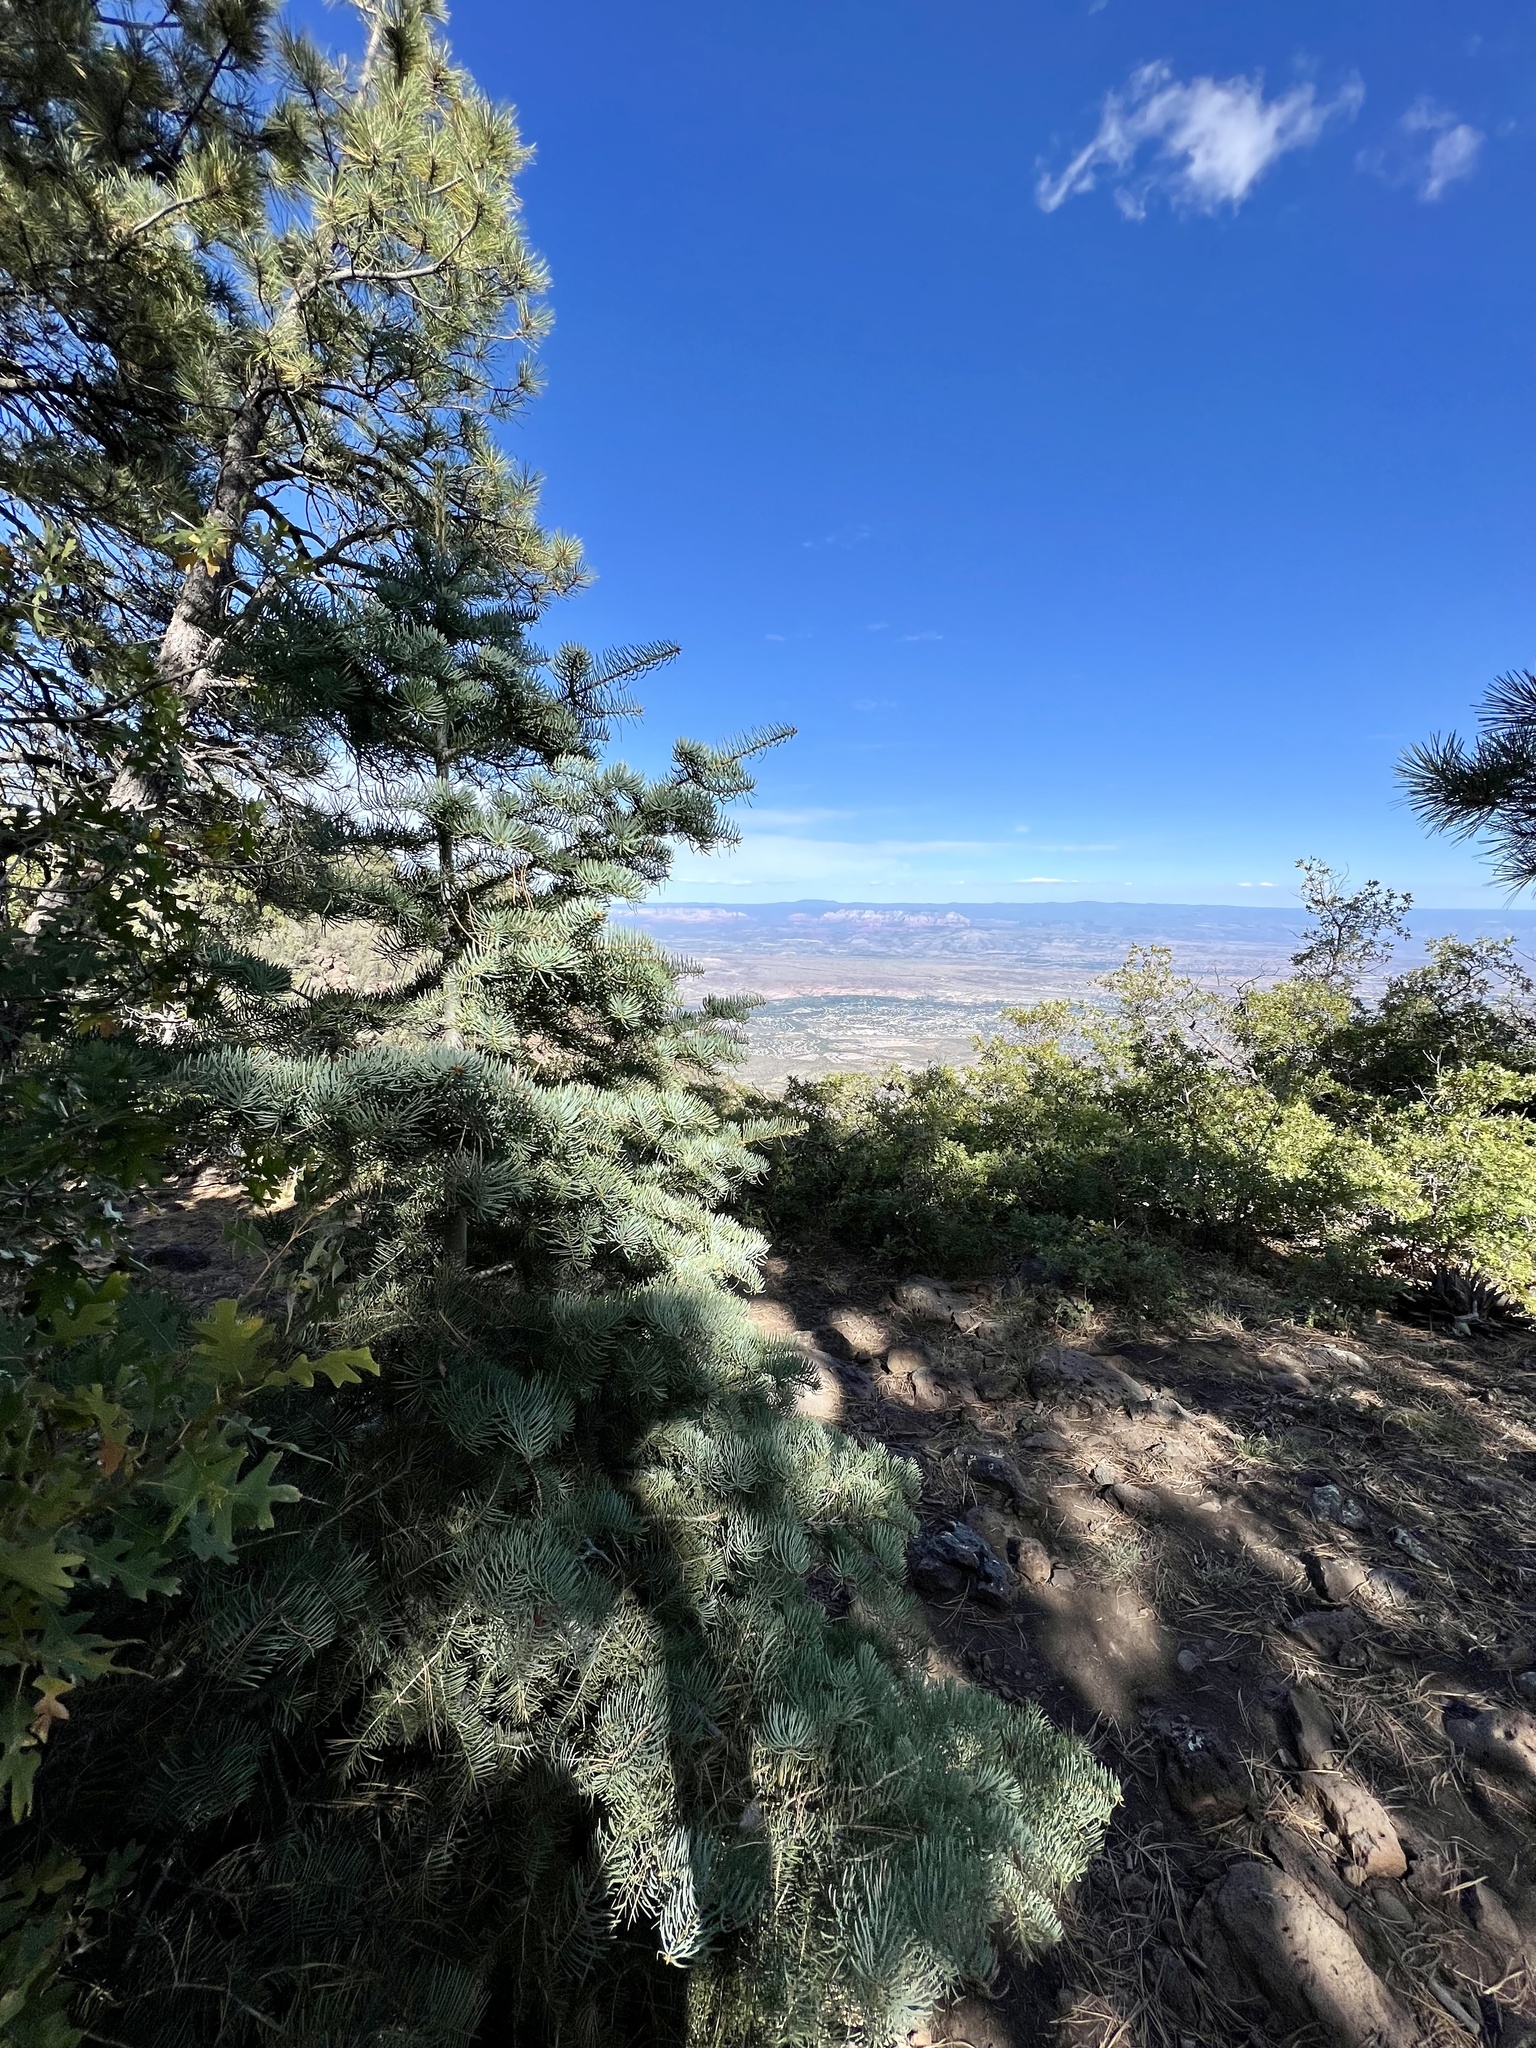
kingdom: Plantae
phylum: Tracheophyta
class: Pinopsida
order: Pinales
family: Pinaceae
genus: Abies
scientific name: Abies concolor
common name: Colorado fir
